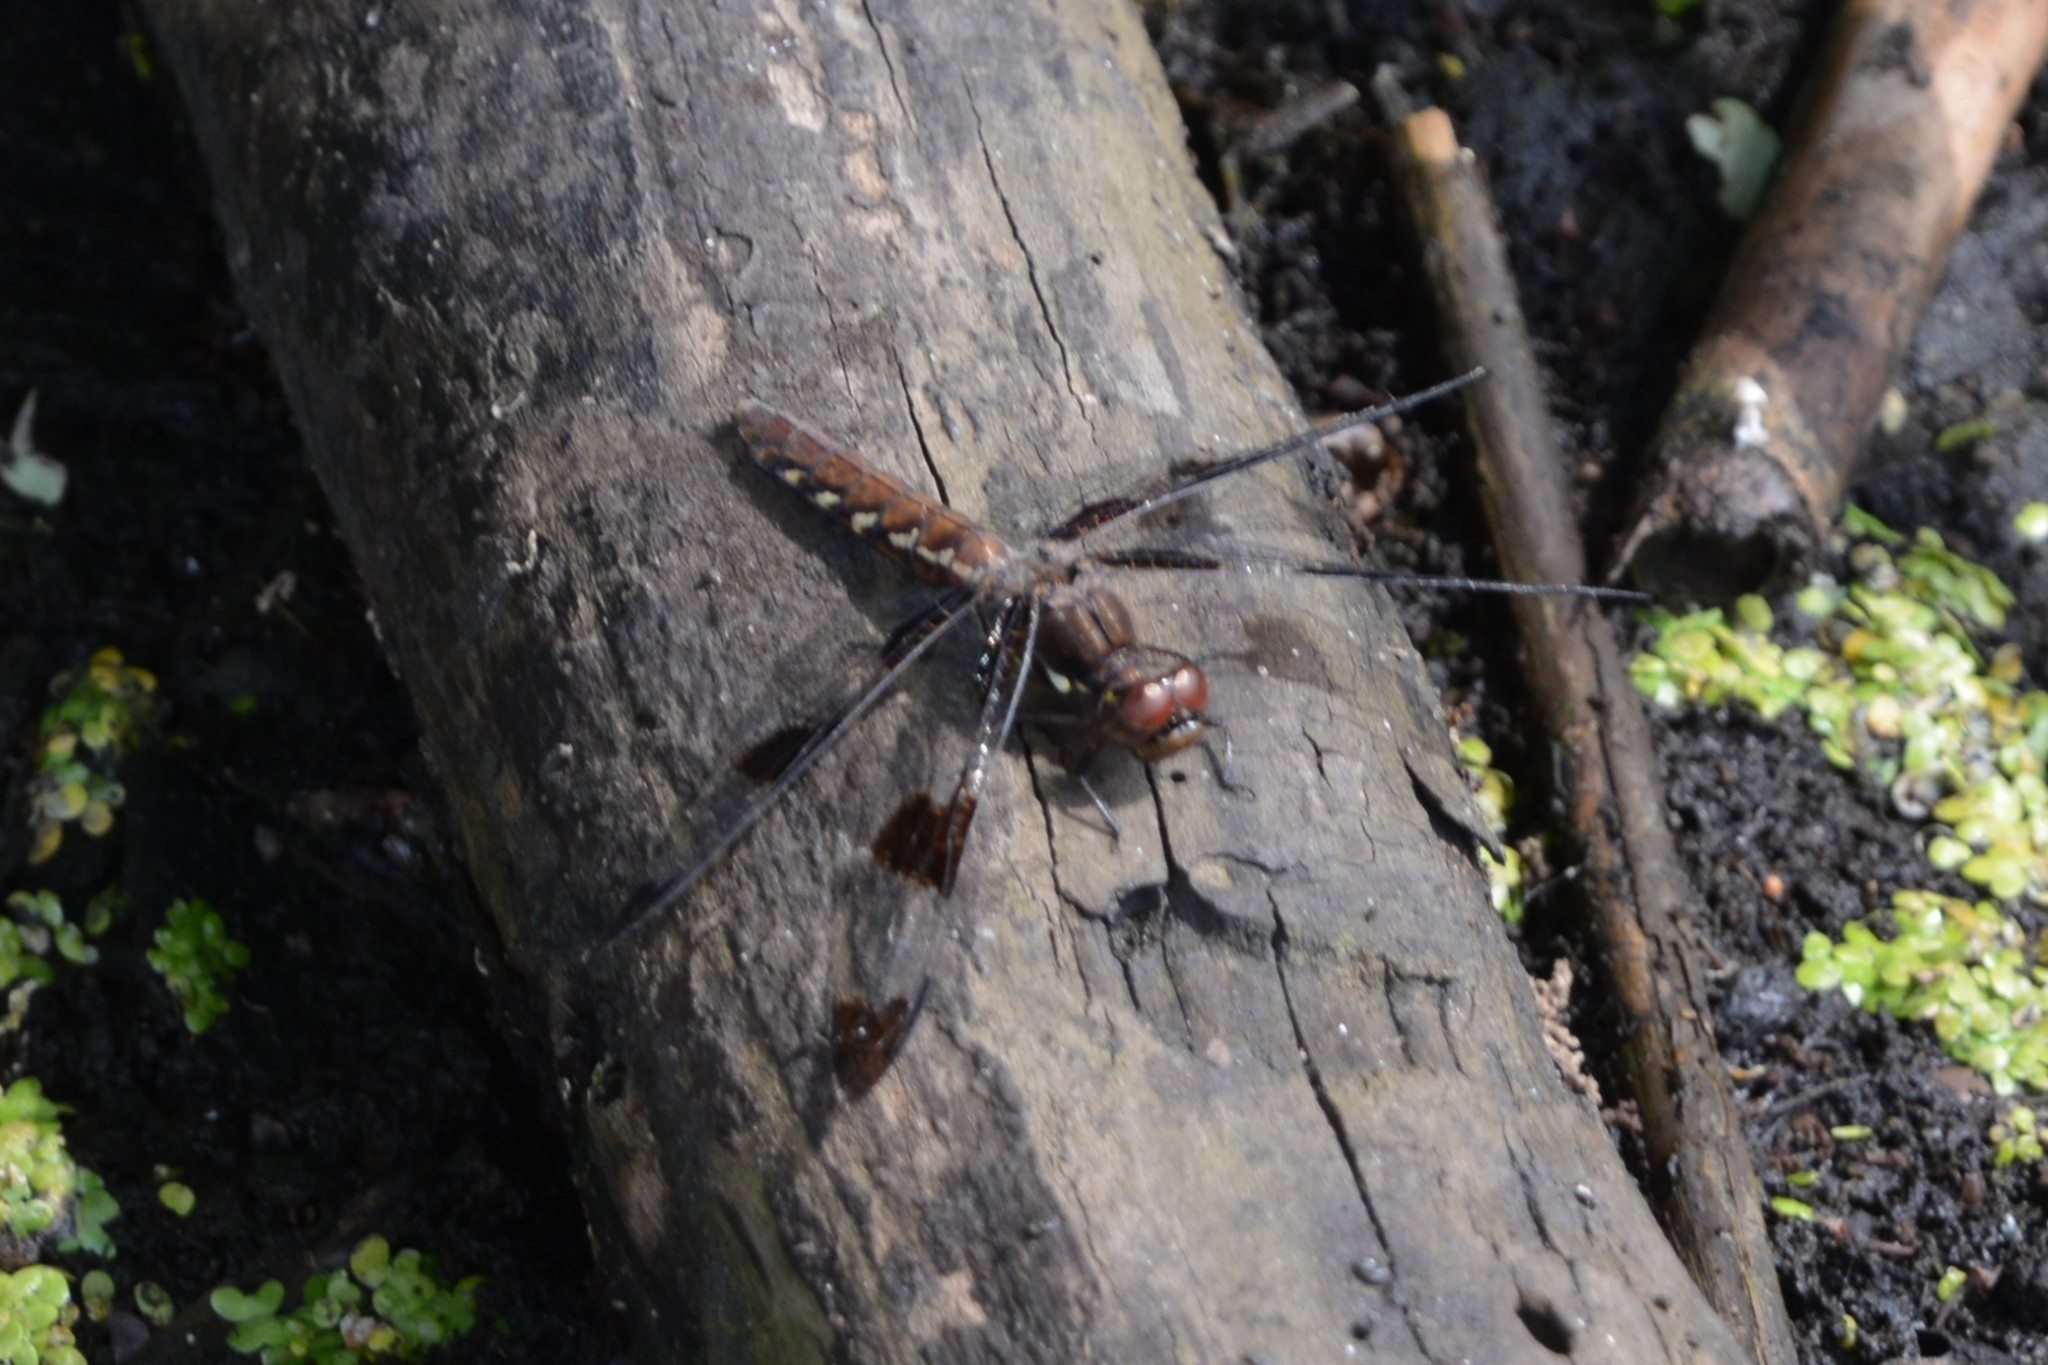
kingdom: Animalia
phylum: Arthropoda
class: Insecta
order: Odonata
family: Libellulidae
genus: Plathemis
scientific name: Plathemis lydia
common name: Common whitetail
